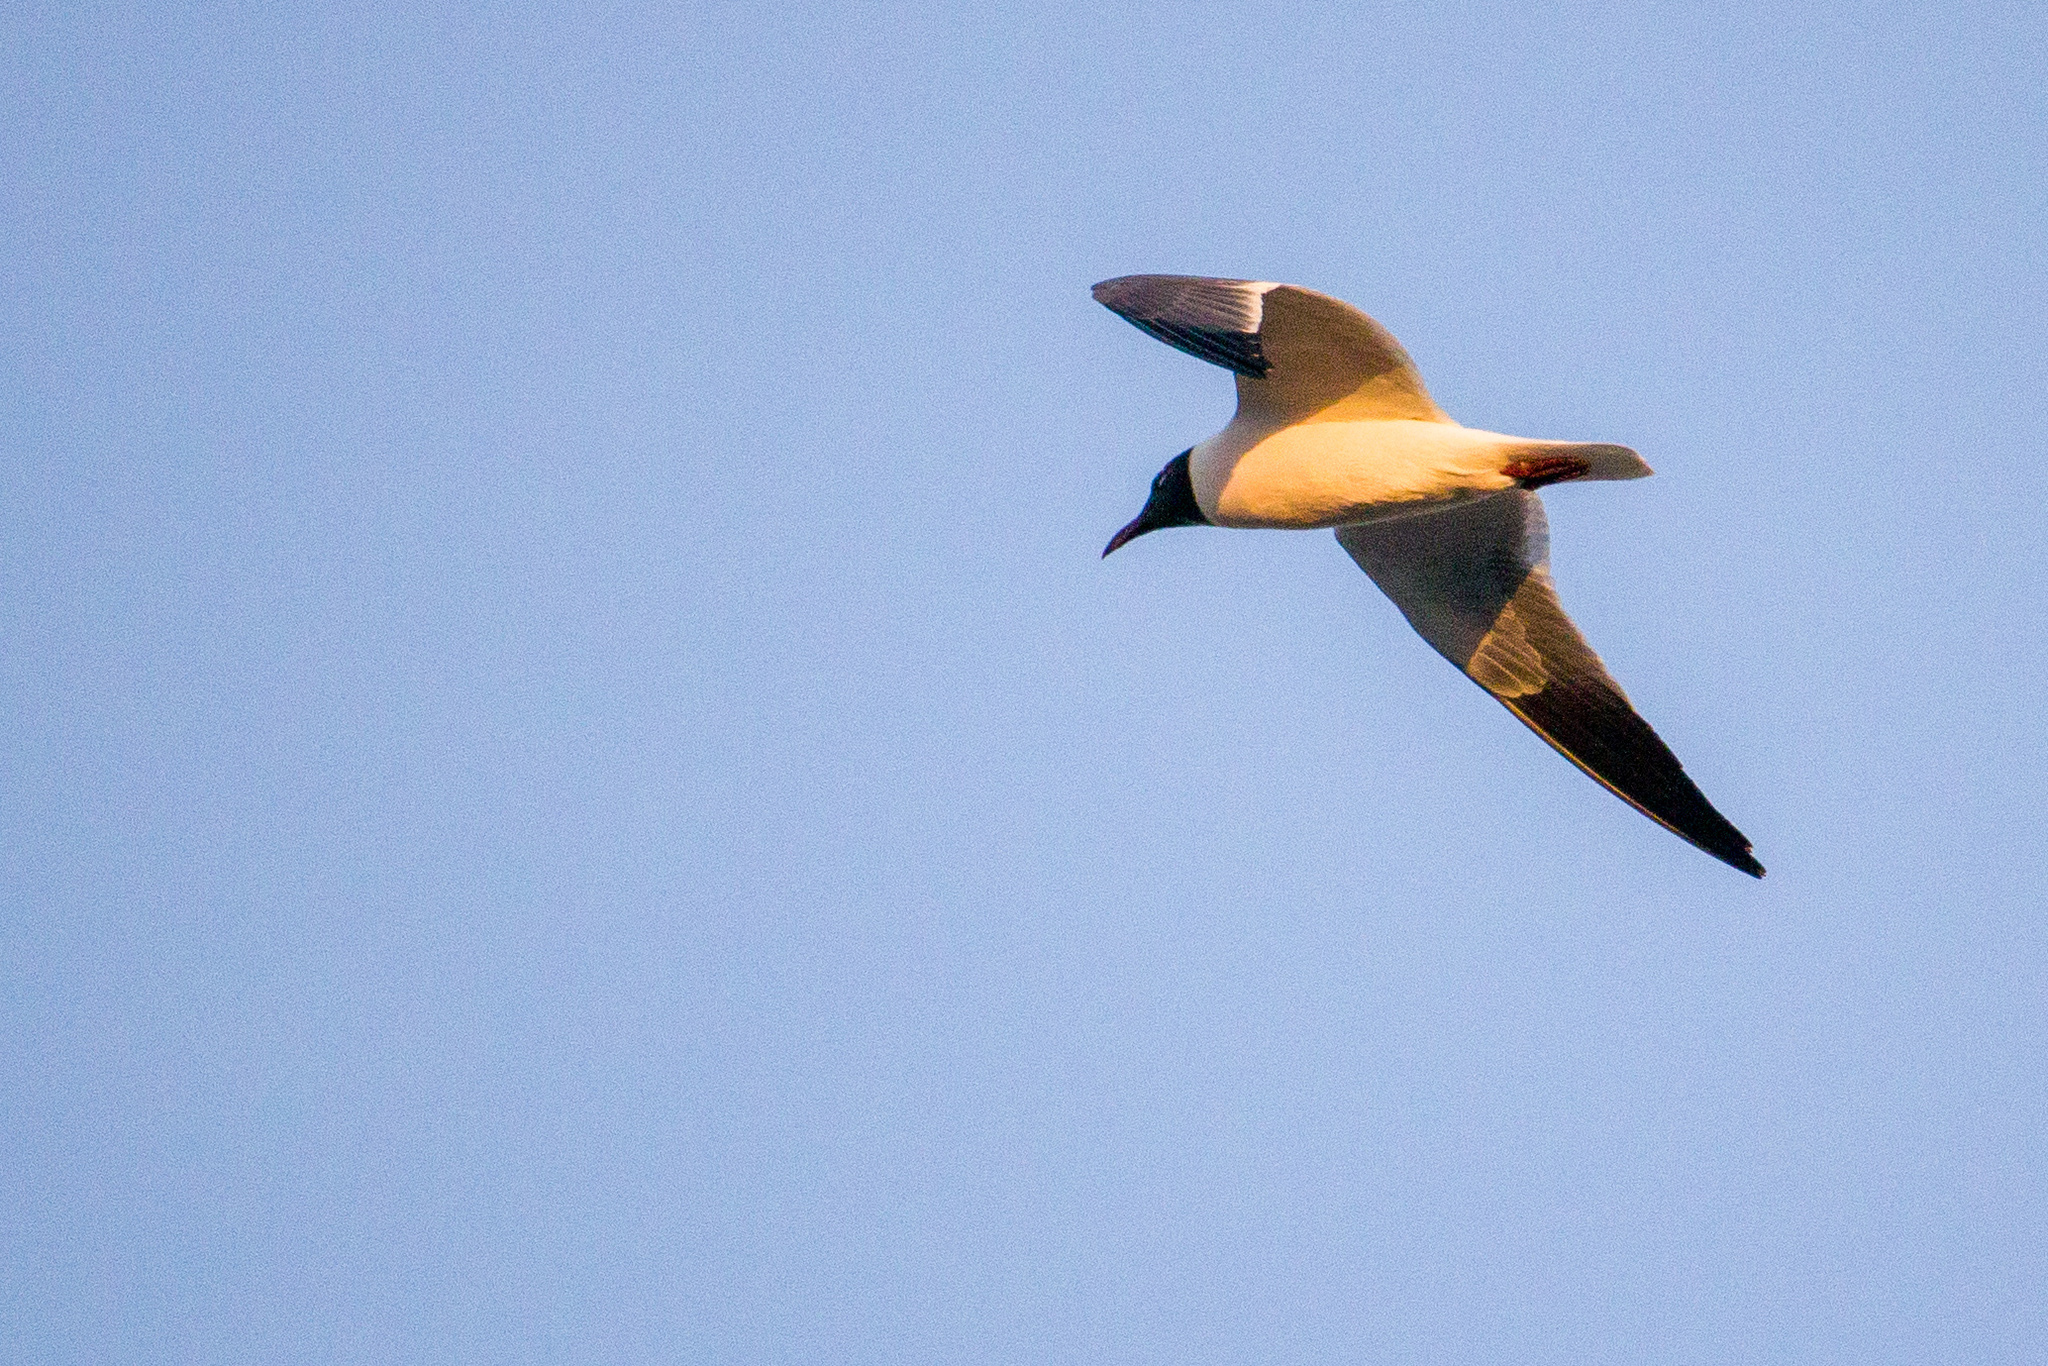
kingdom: Animalia
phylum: Chordata
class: Aves
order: Charadriiformes
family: Laridae
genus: Leucophaeus
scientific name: Leucophaeus atricilla
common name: Laughing gull
